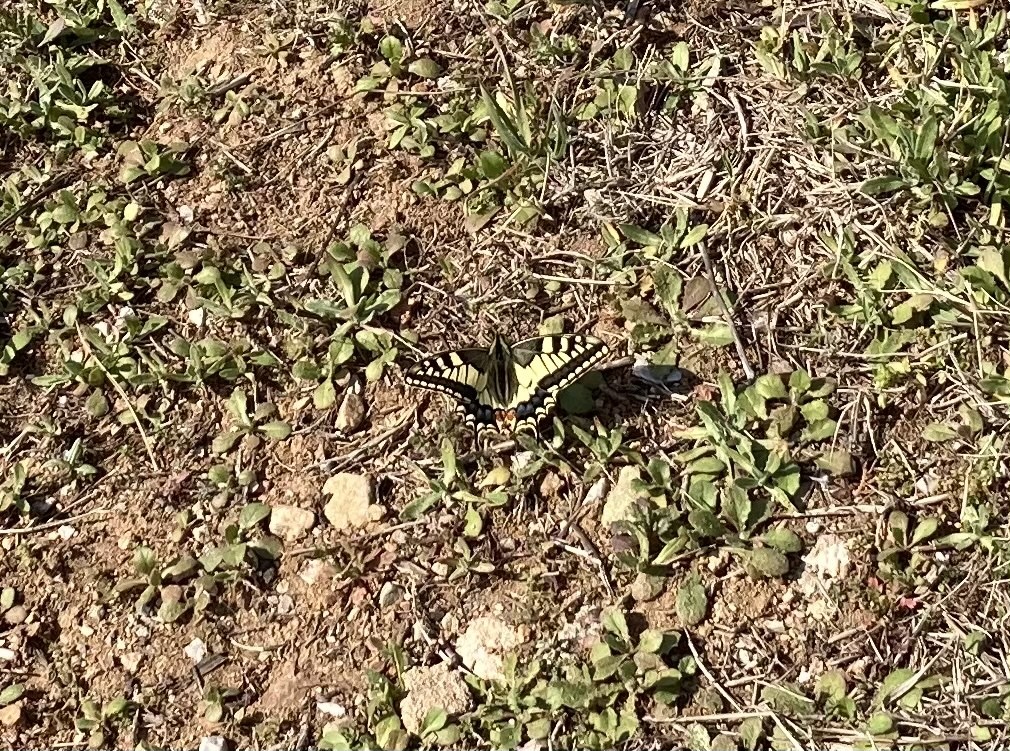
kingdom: Animalia
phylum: Arthropoda
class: Insecta
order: Lepidoptera
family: Papilionidae
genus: Papilio
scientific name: Papilio machaon
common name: Swallowtail
